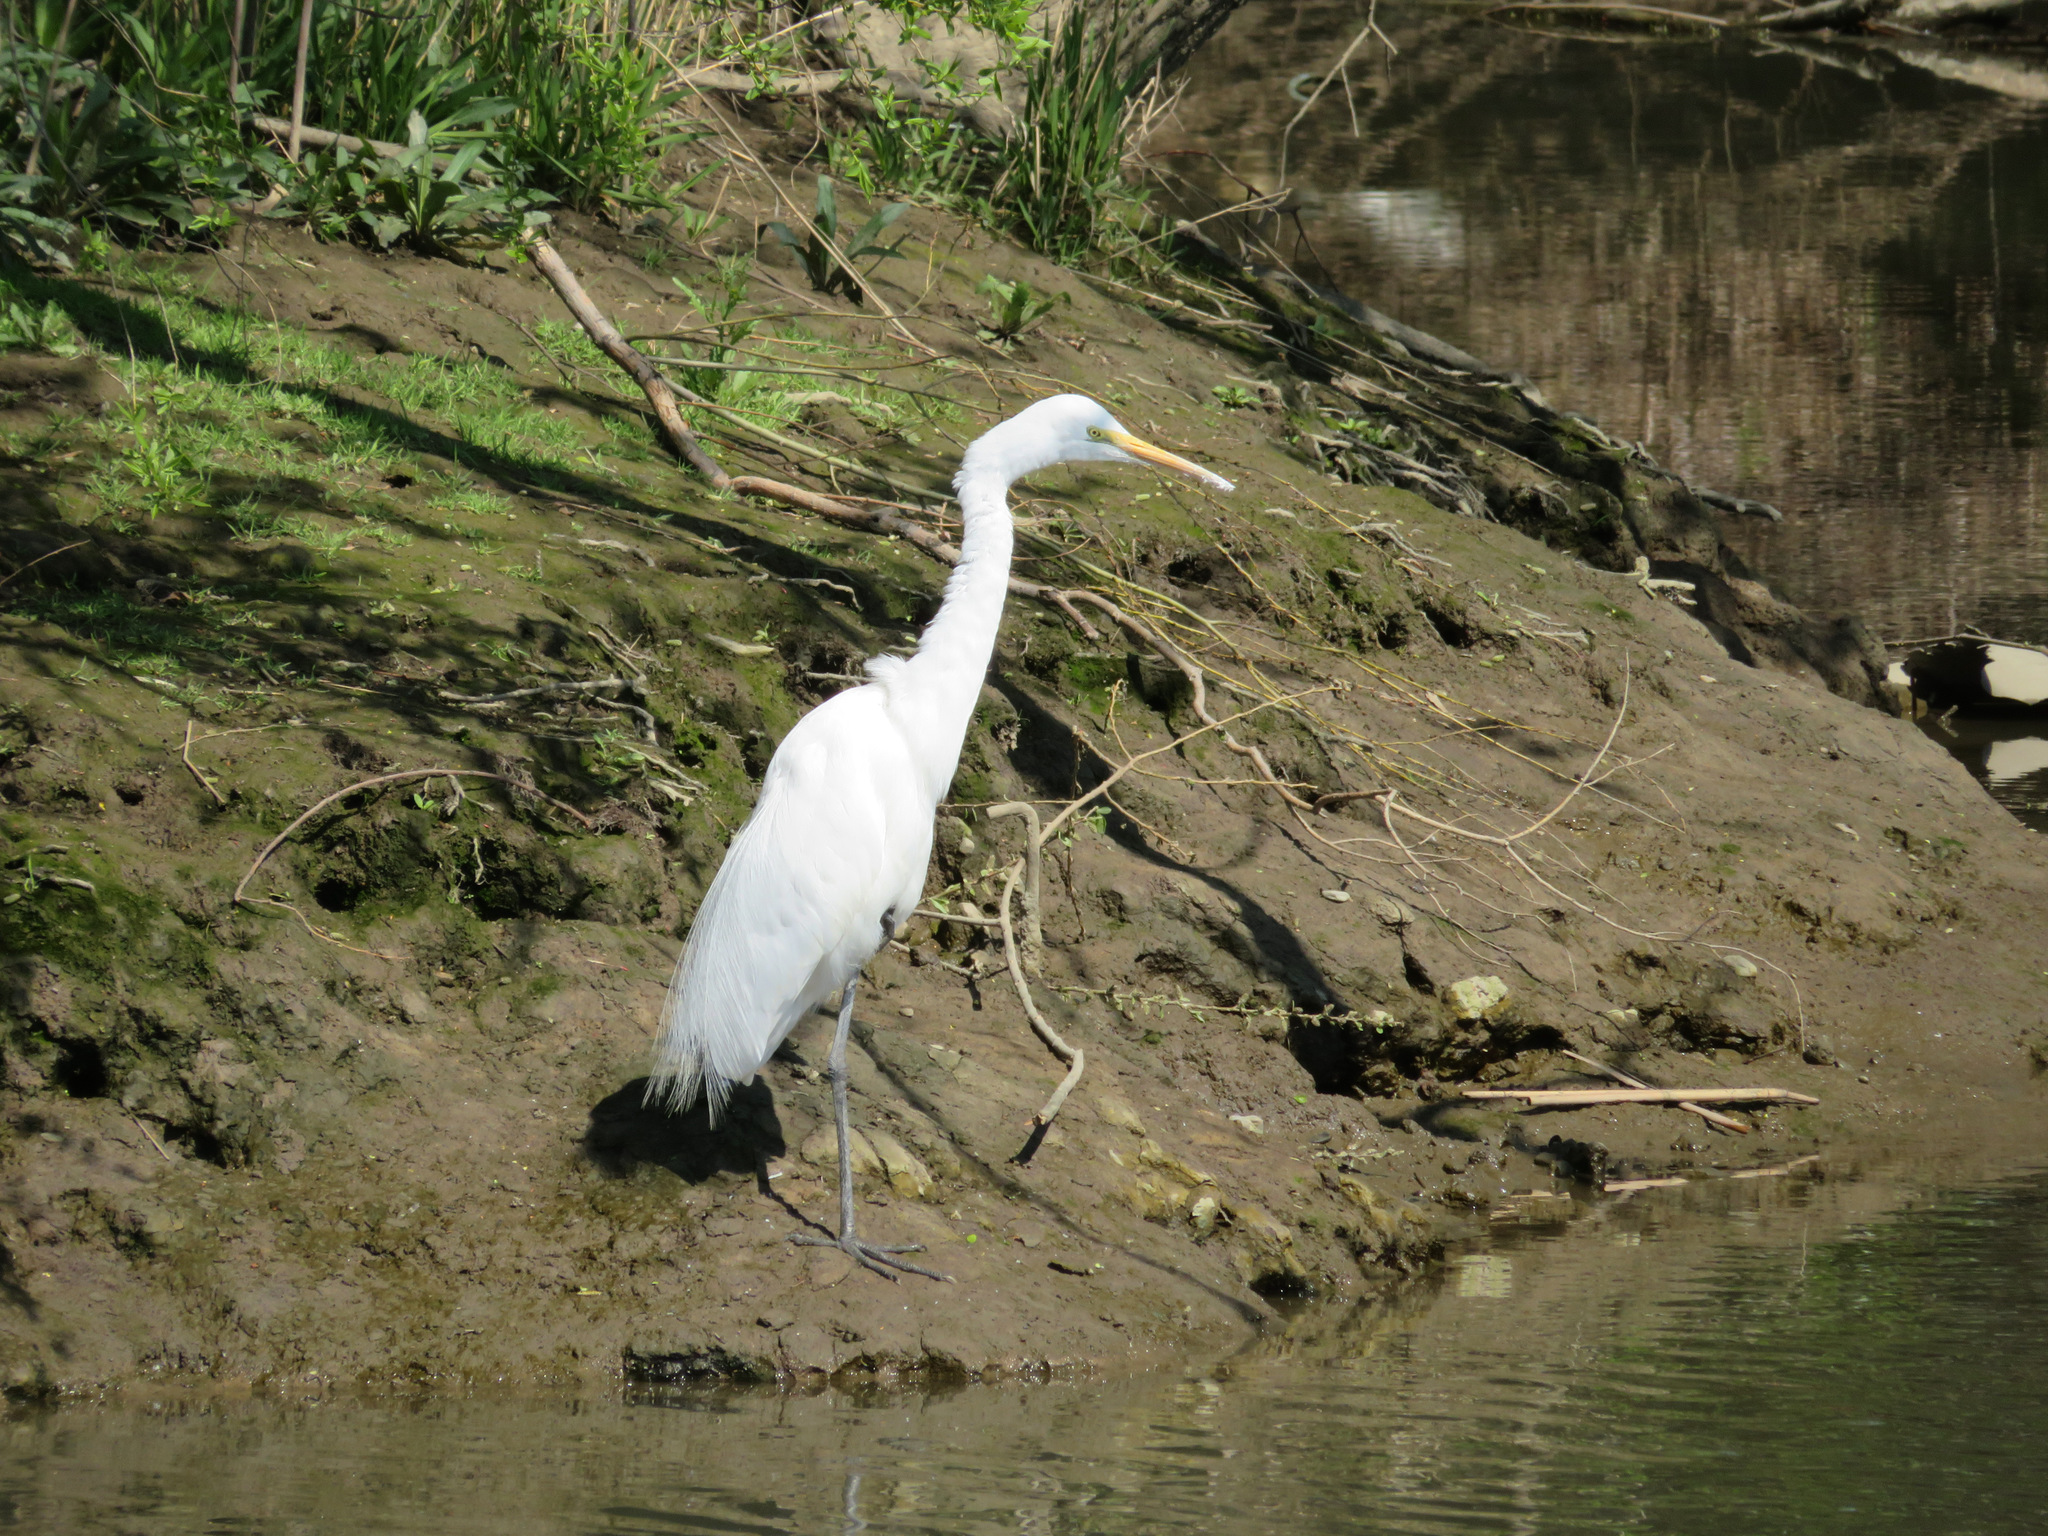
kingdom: Animalia
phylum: Chordata
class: Aves
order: Pelecaniformes
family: Ardeidae
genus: Ardea
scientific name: Ardea alba
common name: Great egret
